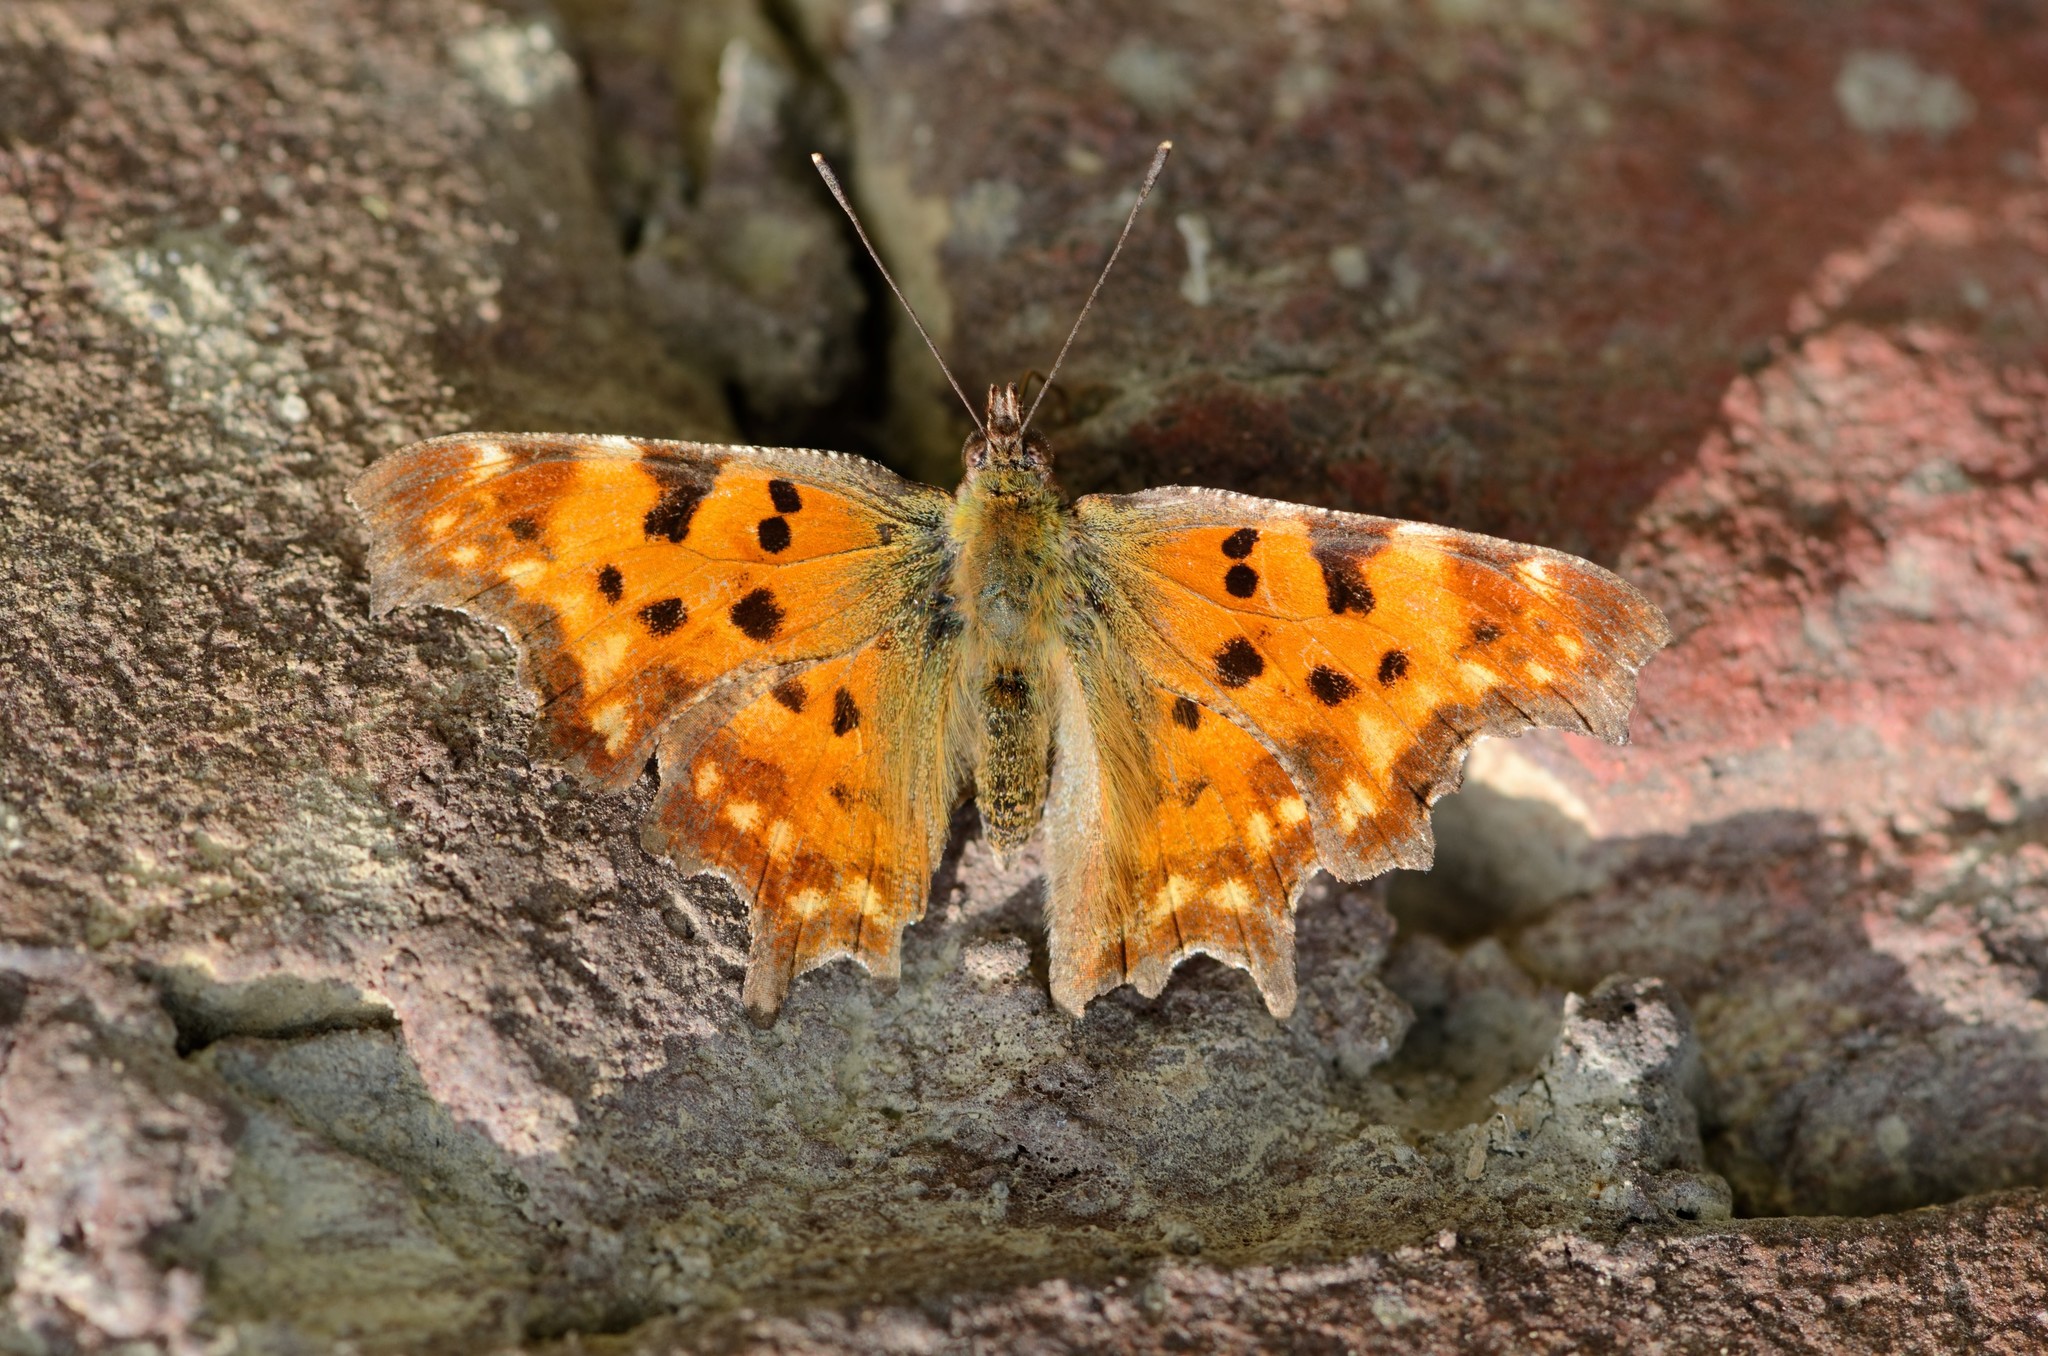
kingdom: Animalia
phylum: Arthropoda
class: Insecta
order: Lepidoptera
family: Nymphalidae
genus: Polygonia
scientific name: Polygonia c-album
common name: Comma
